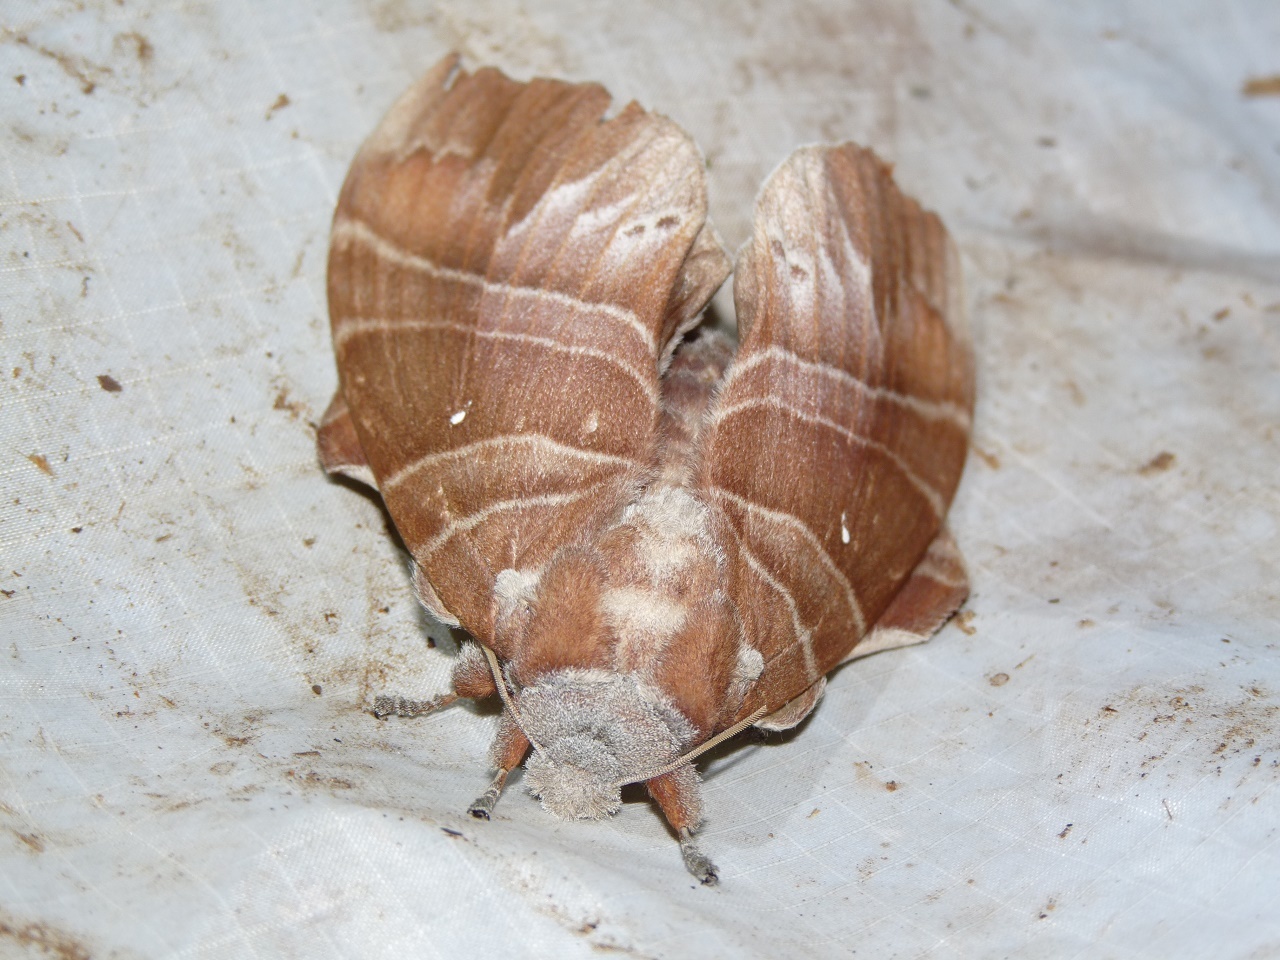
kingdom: Animalia
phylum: Arthropoda
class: Insecta
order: Lepidoptera
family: Lasiocampidae
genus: Lebeda
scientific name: Lebeda cognata
